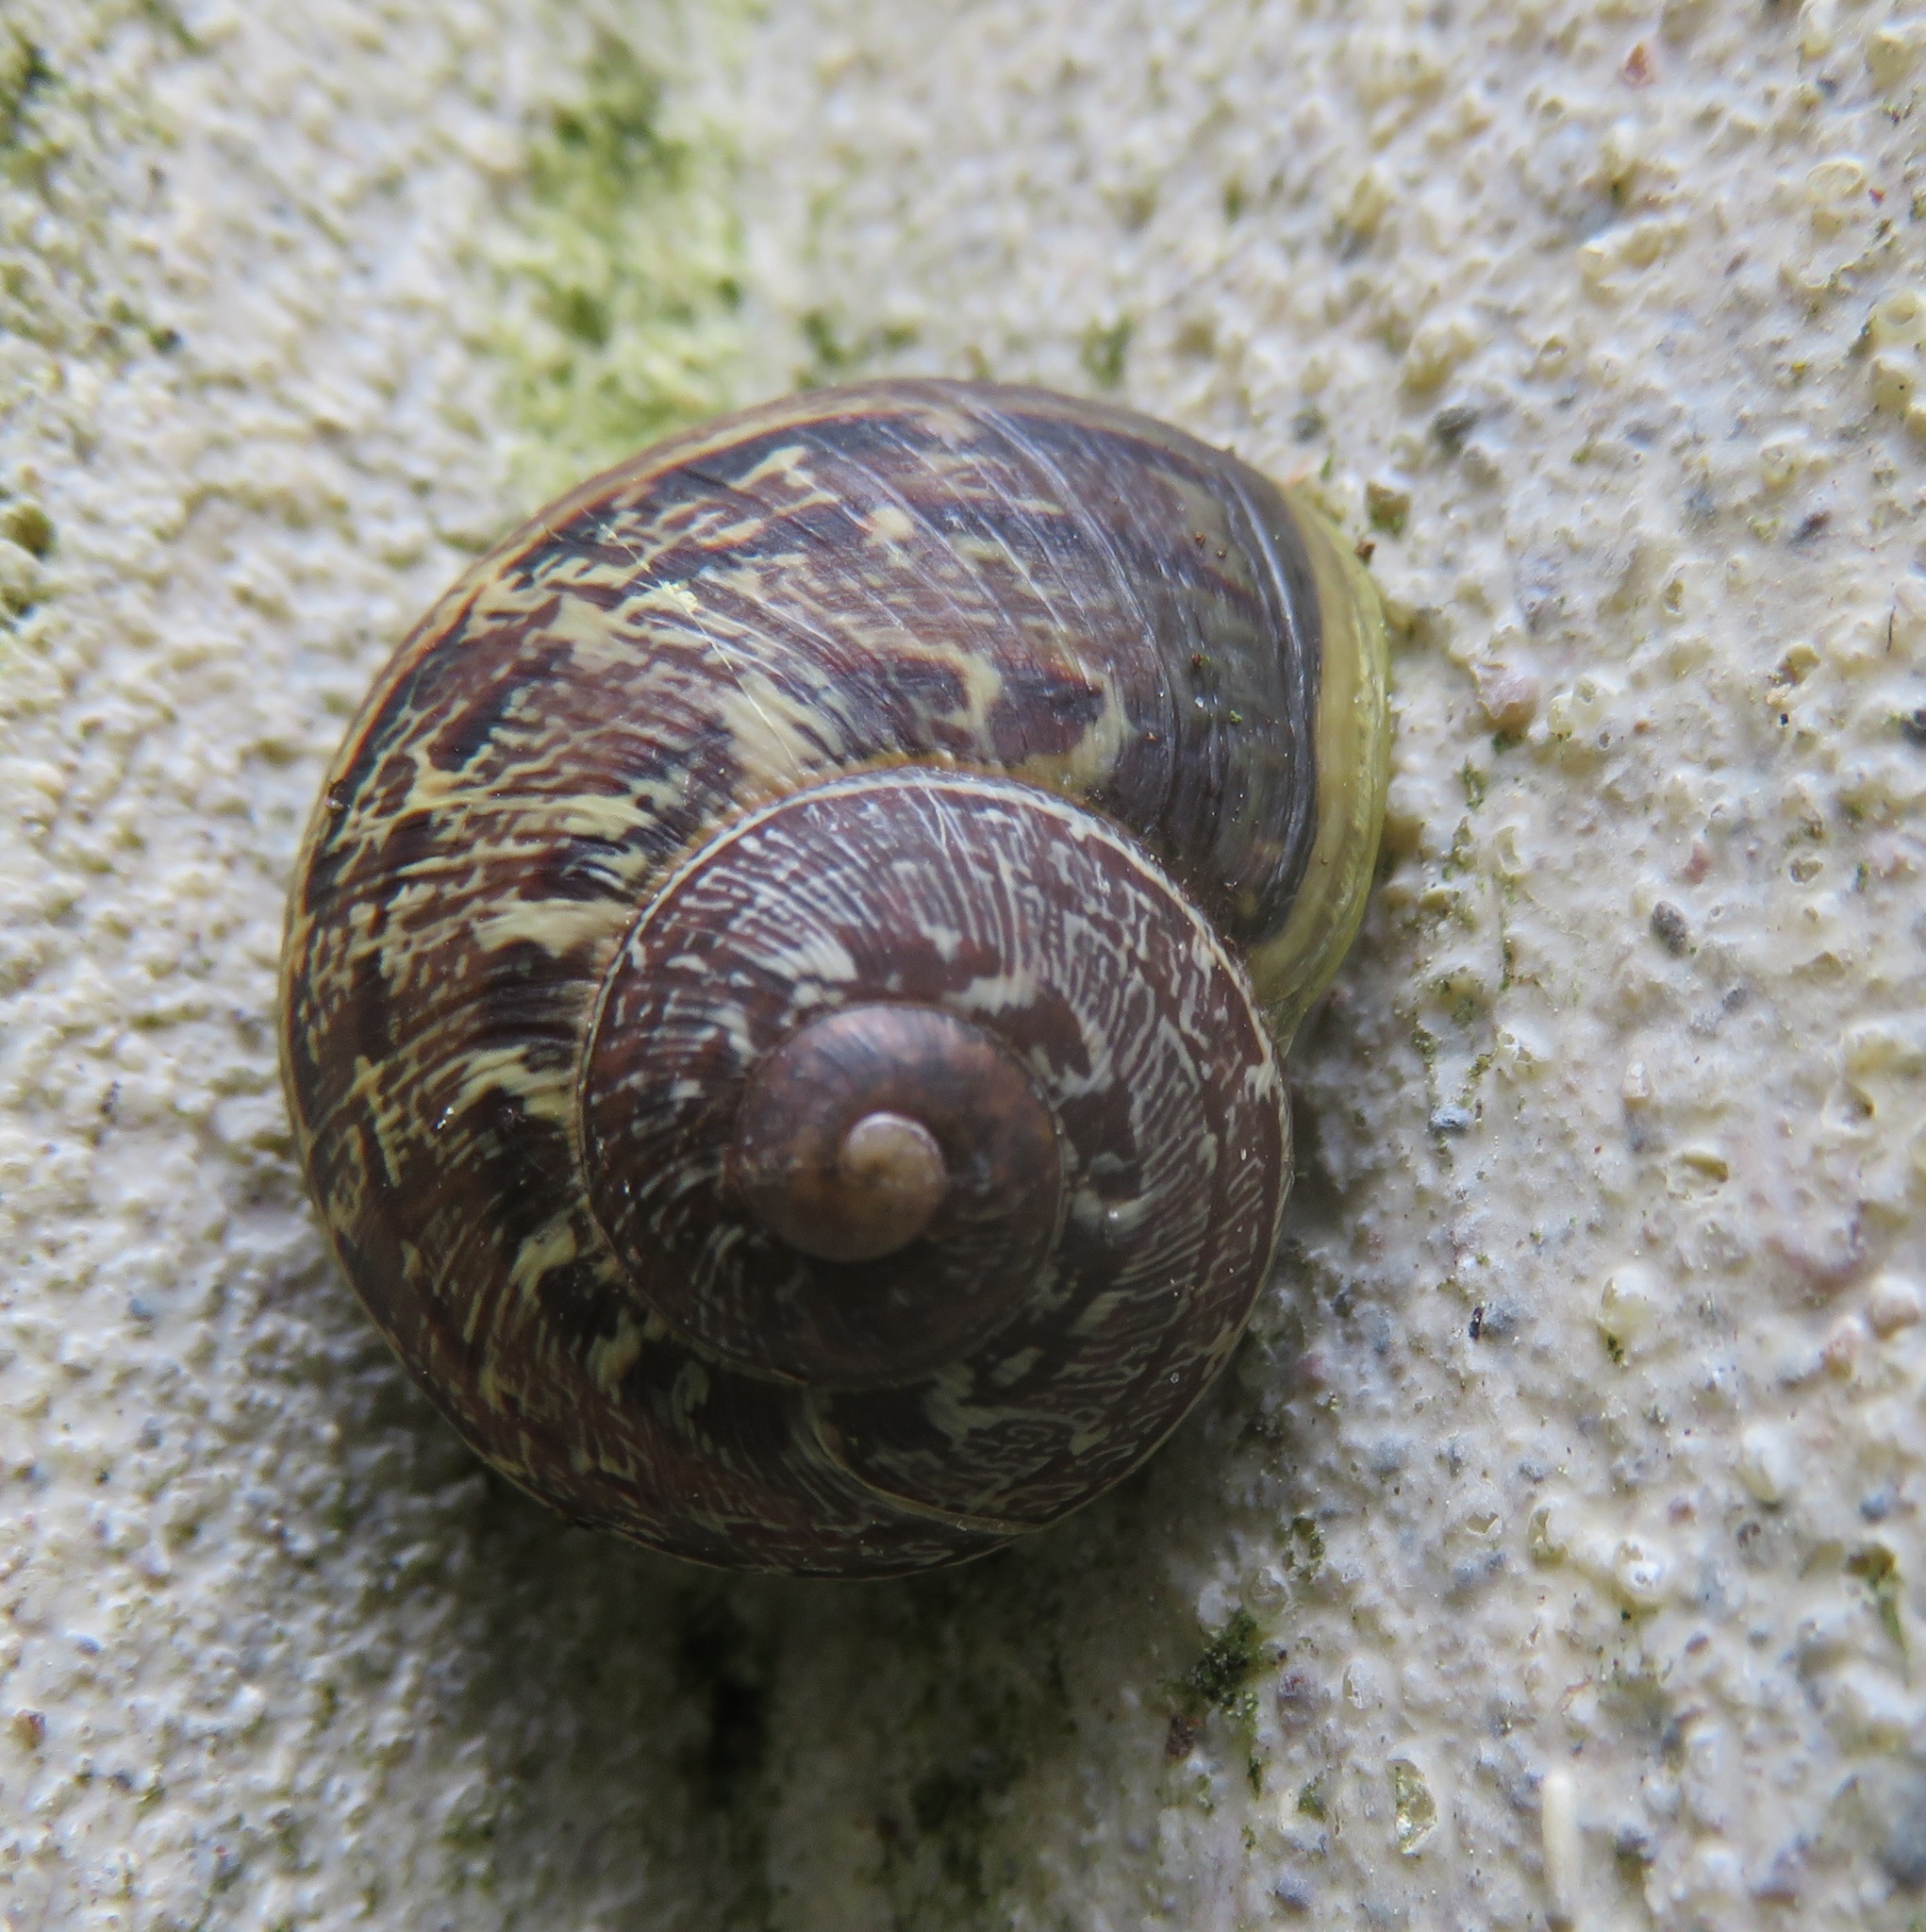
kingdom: Animalia
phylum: Mollusca
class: Gastropoda
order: Stylommatophora
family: Helicidae
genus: Cornu
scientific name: Cornu aspersum
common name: Brown garden snail
